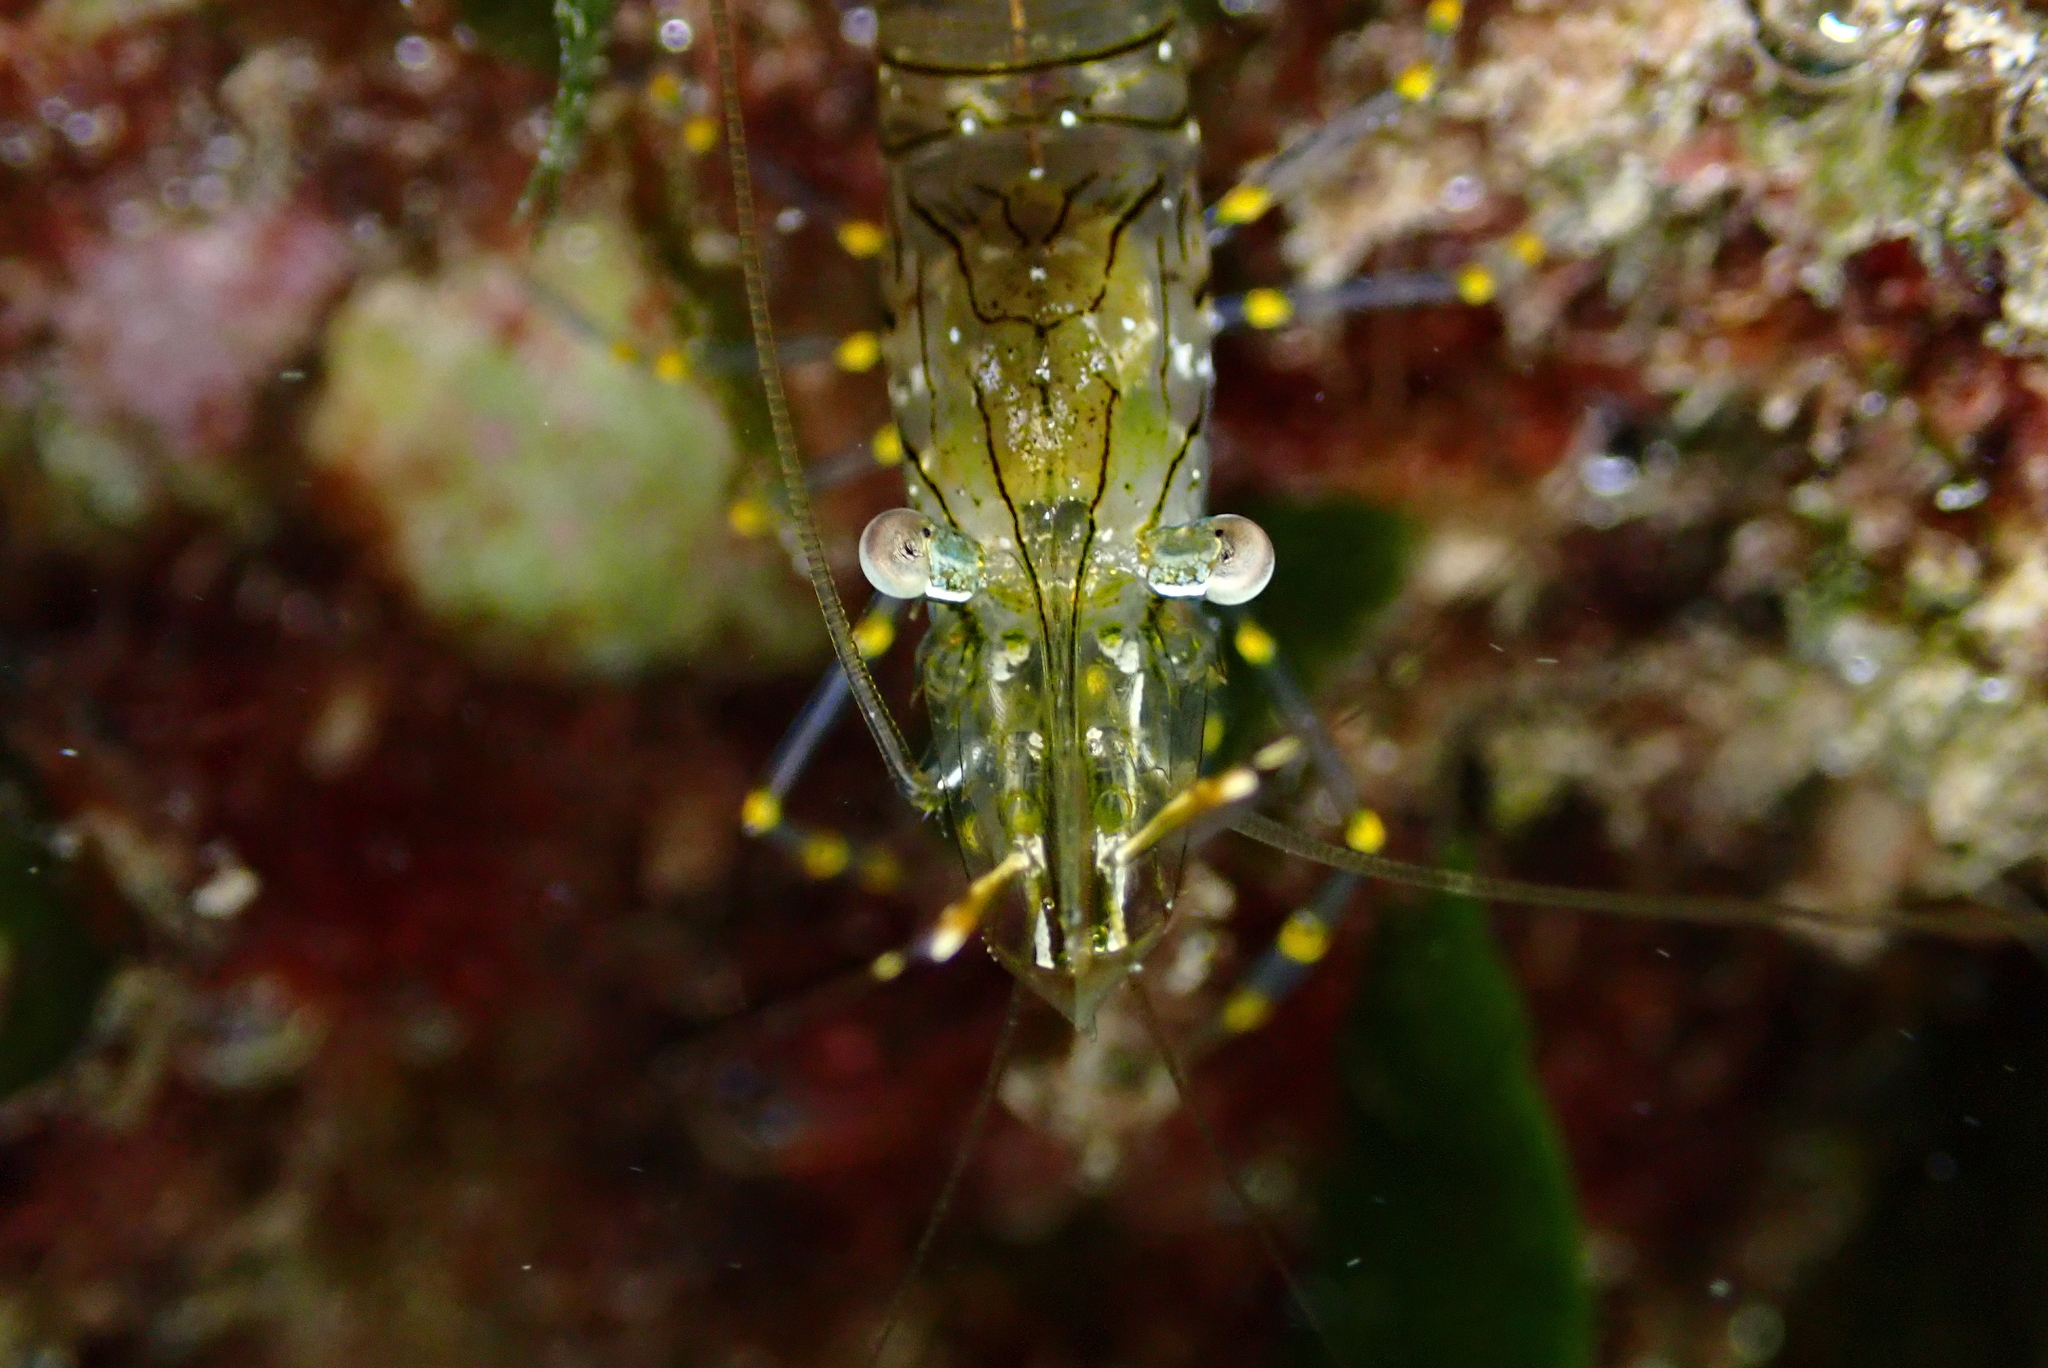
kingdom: Animalia
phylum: Arthropoda
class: Malacostraca
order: Decapoda
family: Palaemonidae
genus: Palaemon
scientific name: Palaemon elegans
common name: Grass prawm
